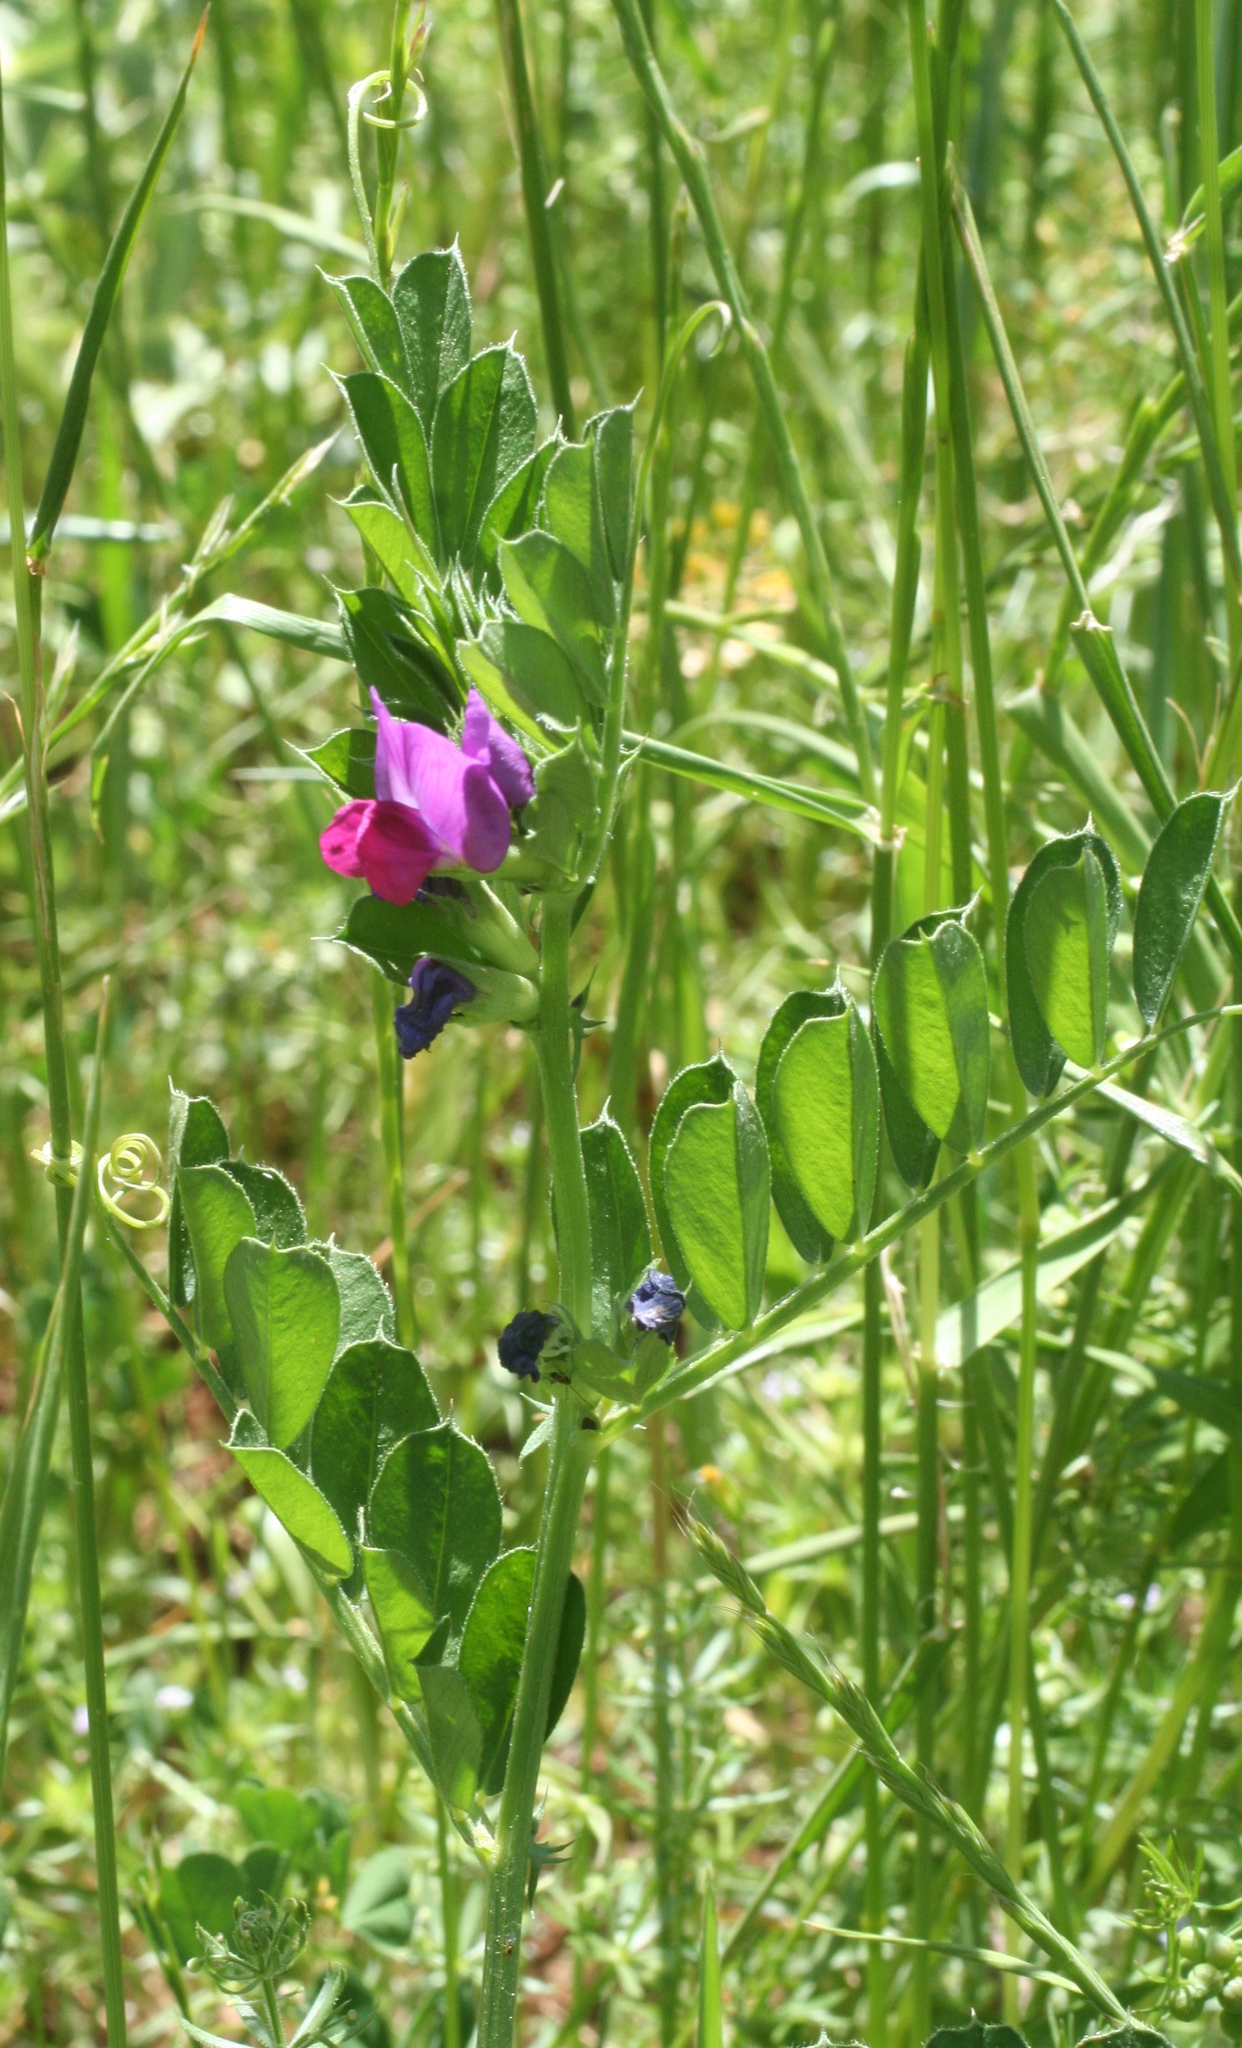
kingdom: Plantae
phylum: Tracheophyta
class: Magnoliopsida
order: Fabales
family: Fabaceae
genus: Vicia
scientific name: Vicia sativa
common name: Garden vetch
